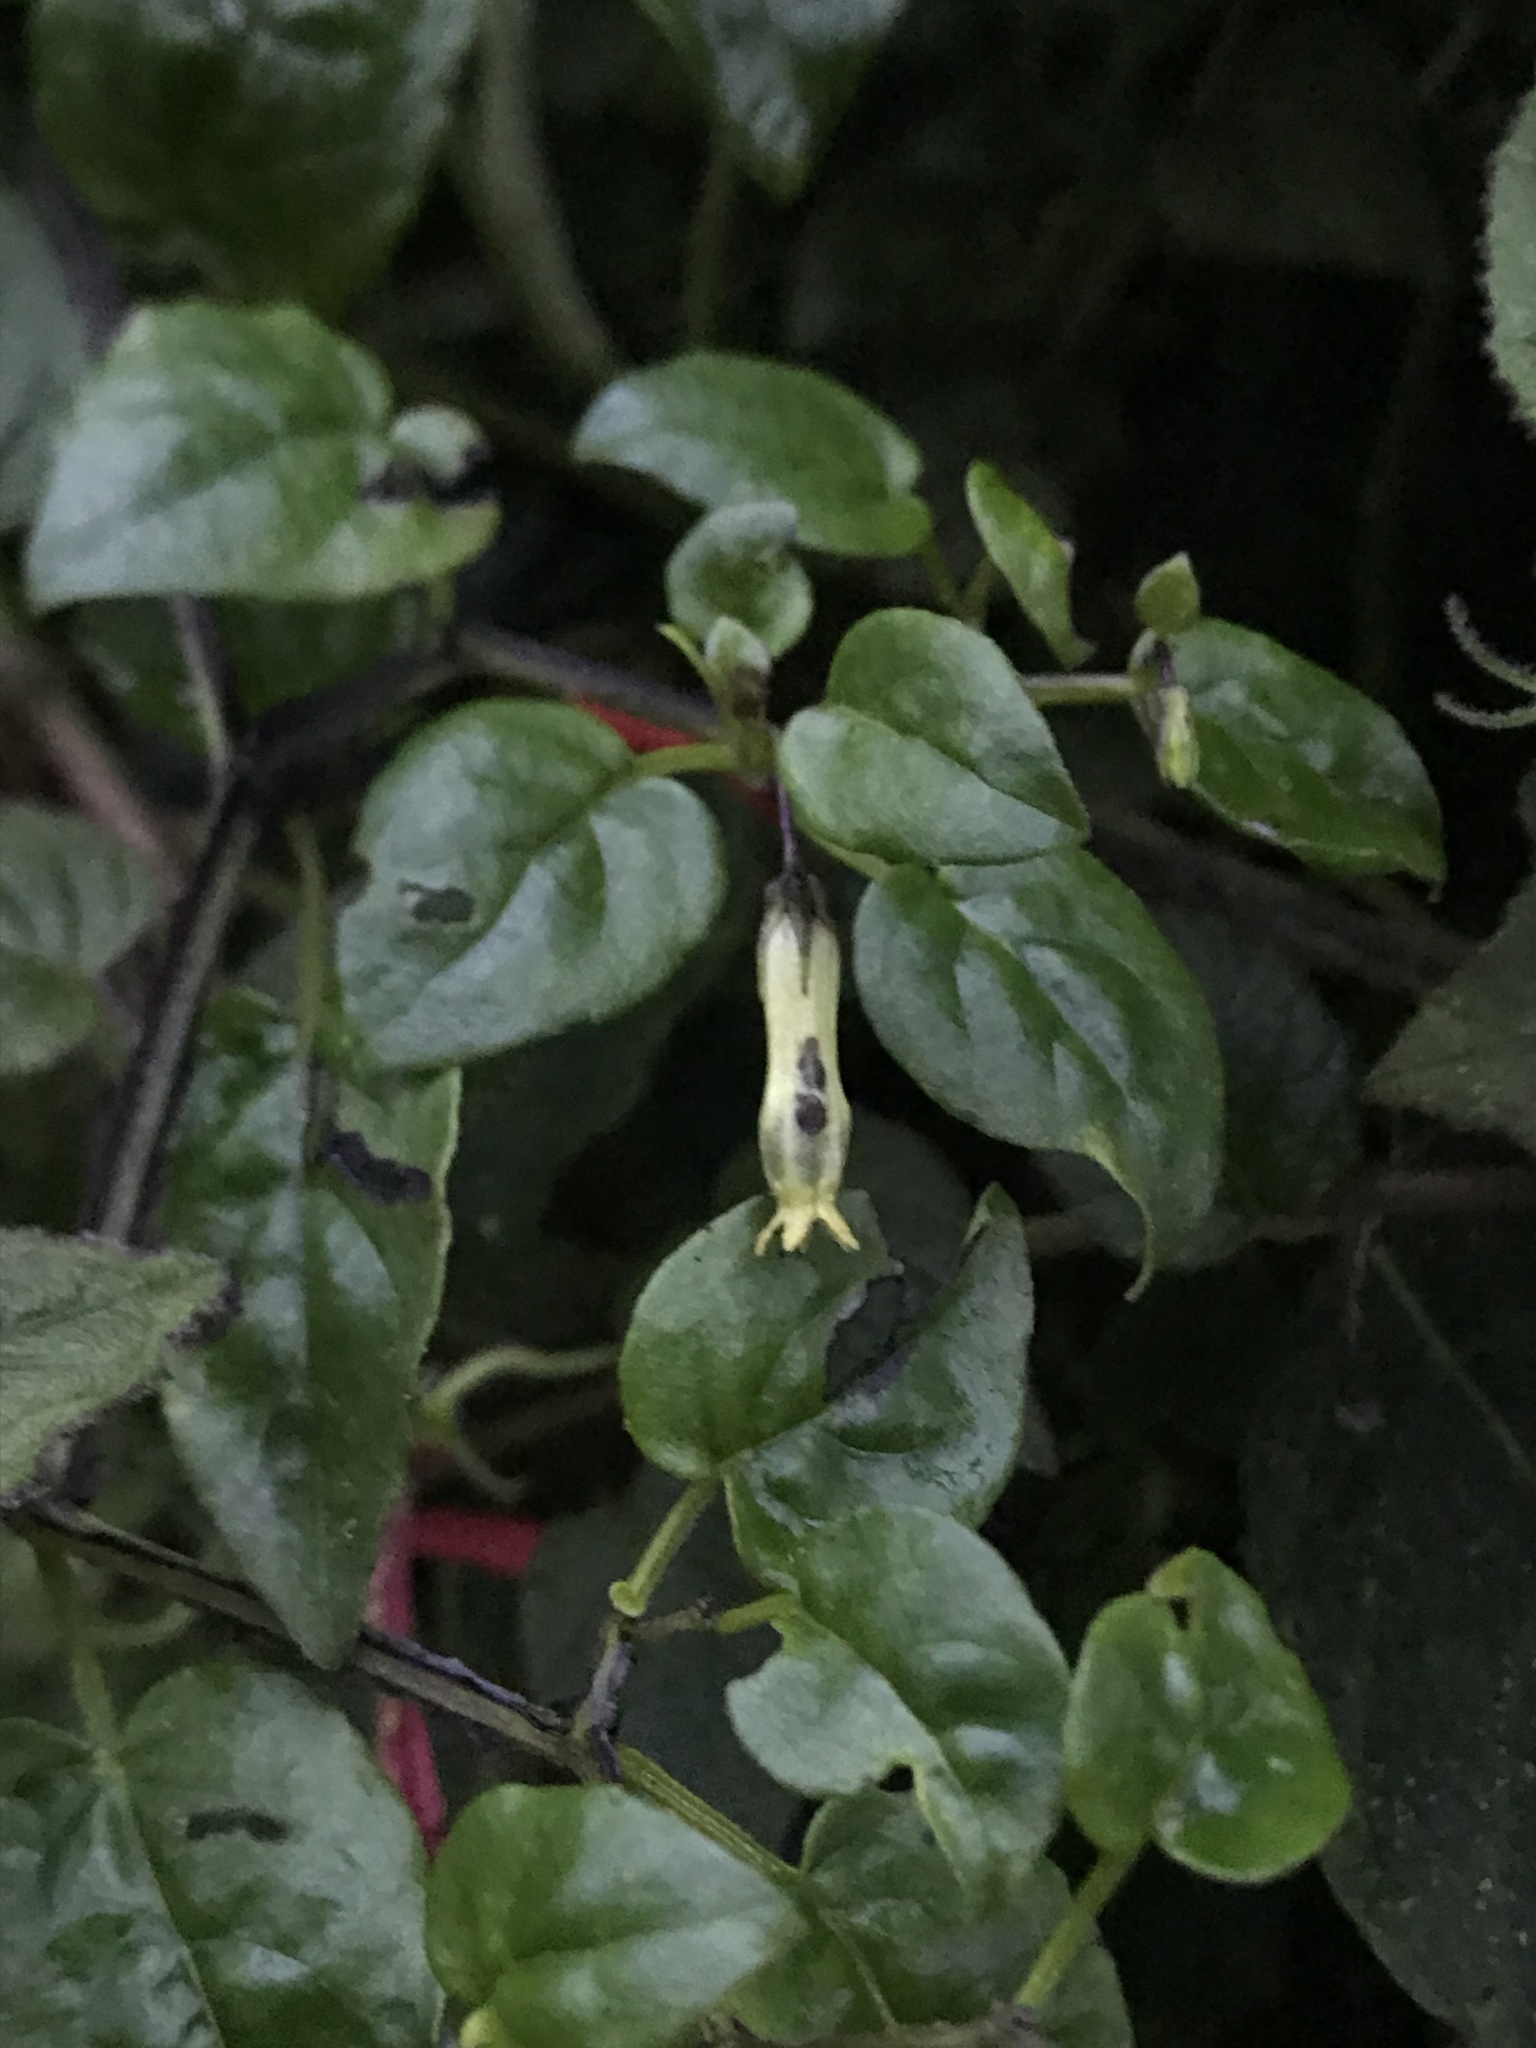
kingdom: Plantae
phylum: Tracheophyta
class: Magnoliopsida
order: Solanales
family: Solanaceae
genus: Salpichroa
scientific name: Salpichroa tristis
